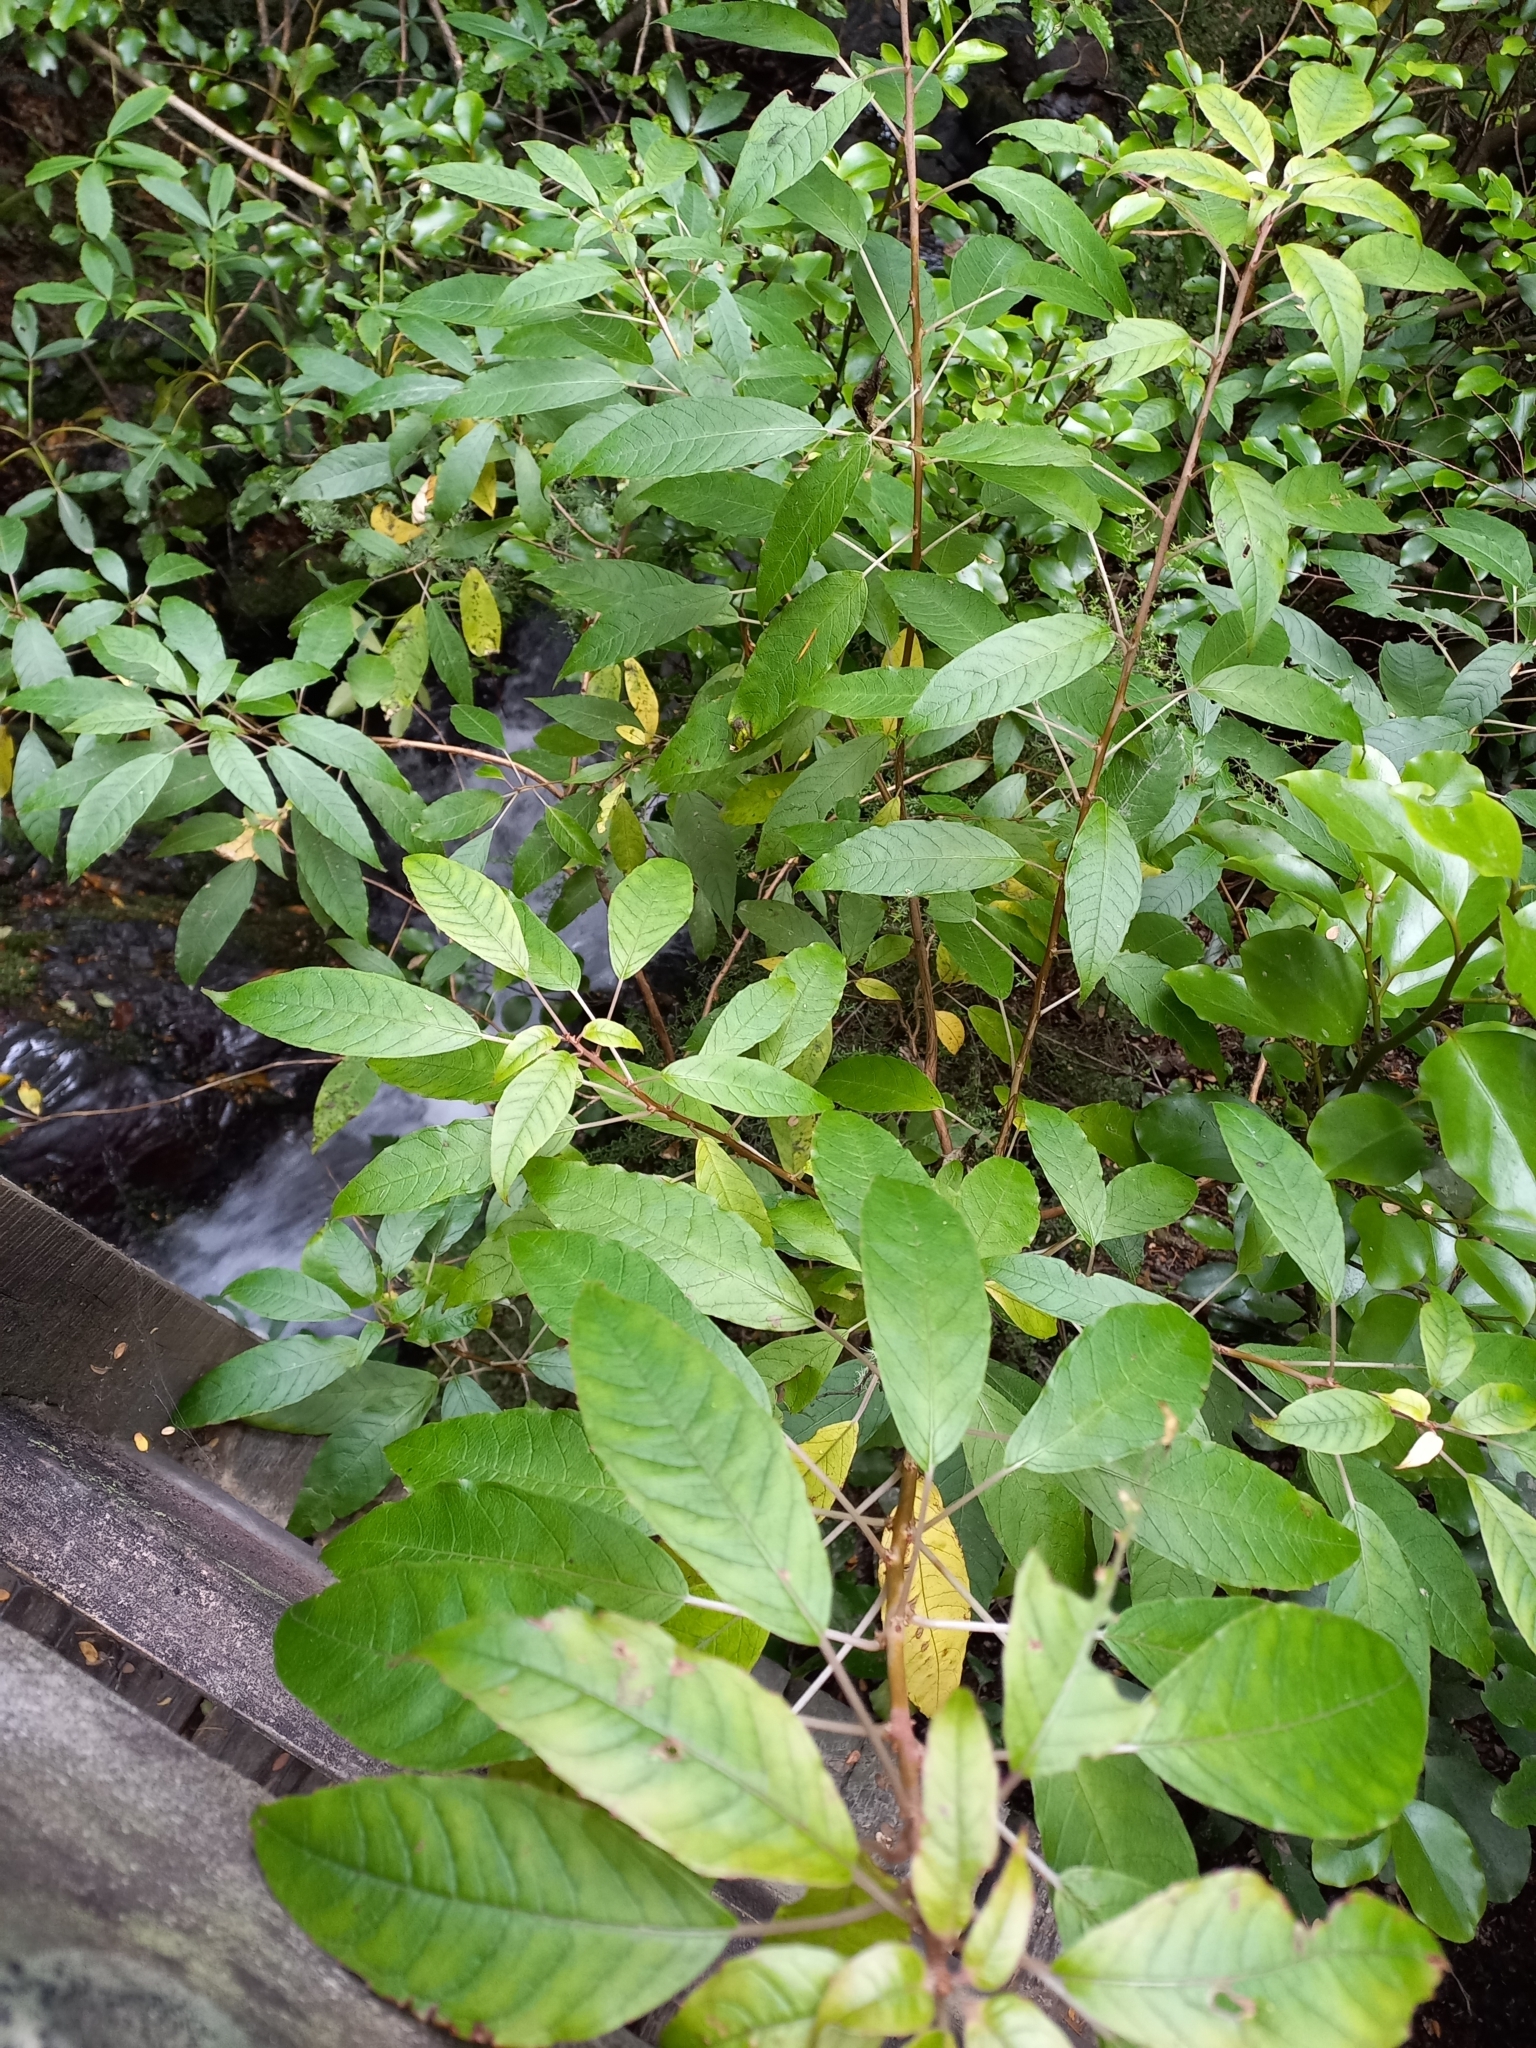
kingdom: Plantae
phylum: Tracheophyta
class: Magnoliopsida
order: Myrtales
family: Onagraceae
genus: Fuchsia
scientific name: Fuchsia excorticata
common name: Tree fuchsia
